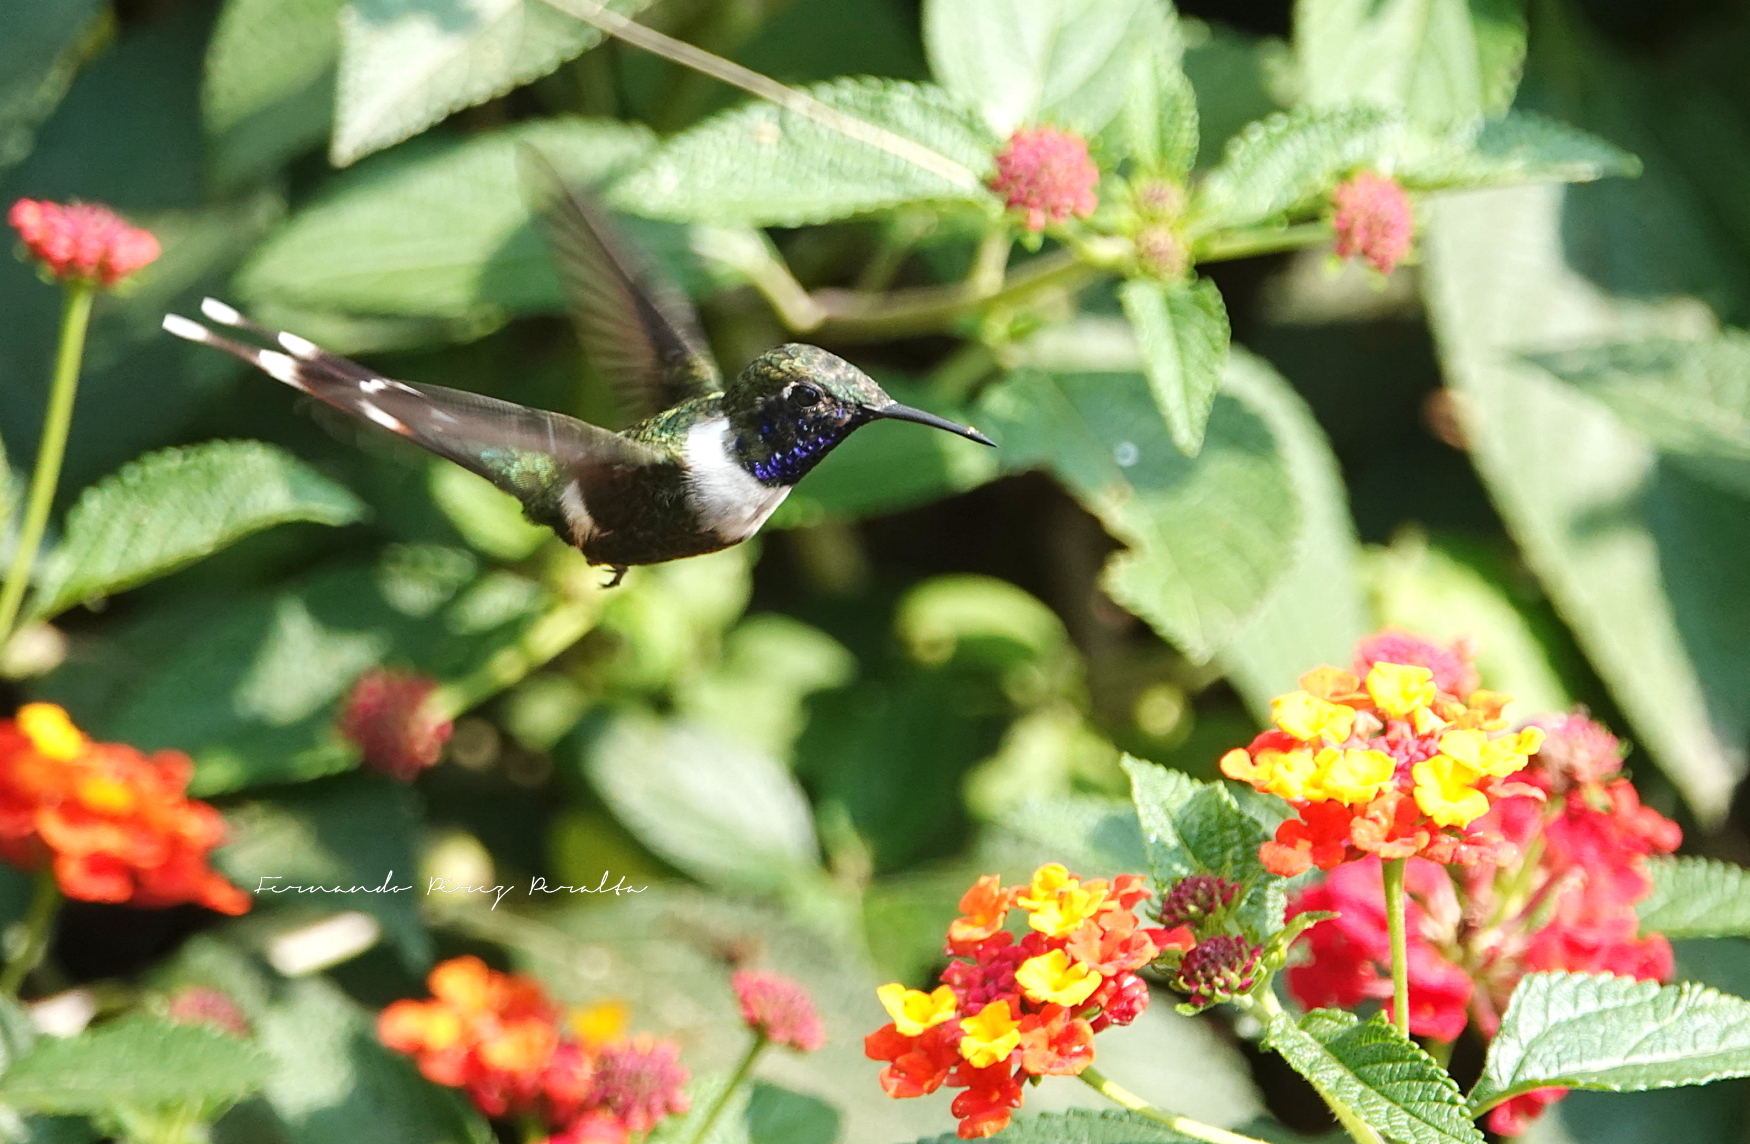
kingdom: Animalia
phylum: Chordata
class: Aves
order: Apodiformes
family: Trochilidae
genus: Tilmatura
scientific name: Tilmatura dupontii
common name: Sparkling-tailed woodstar
